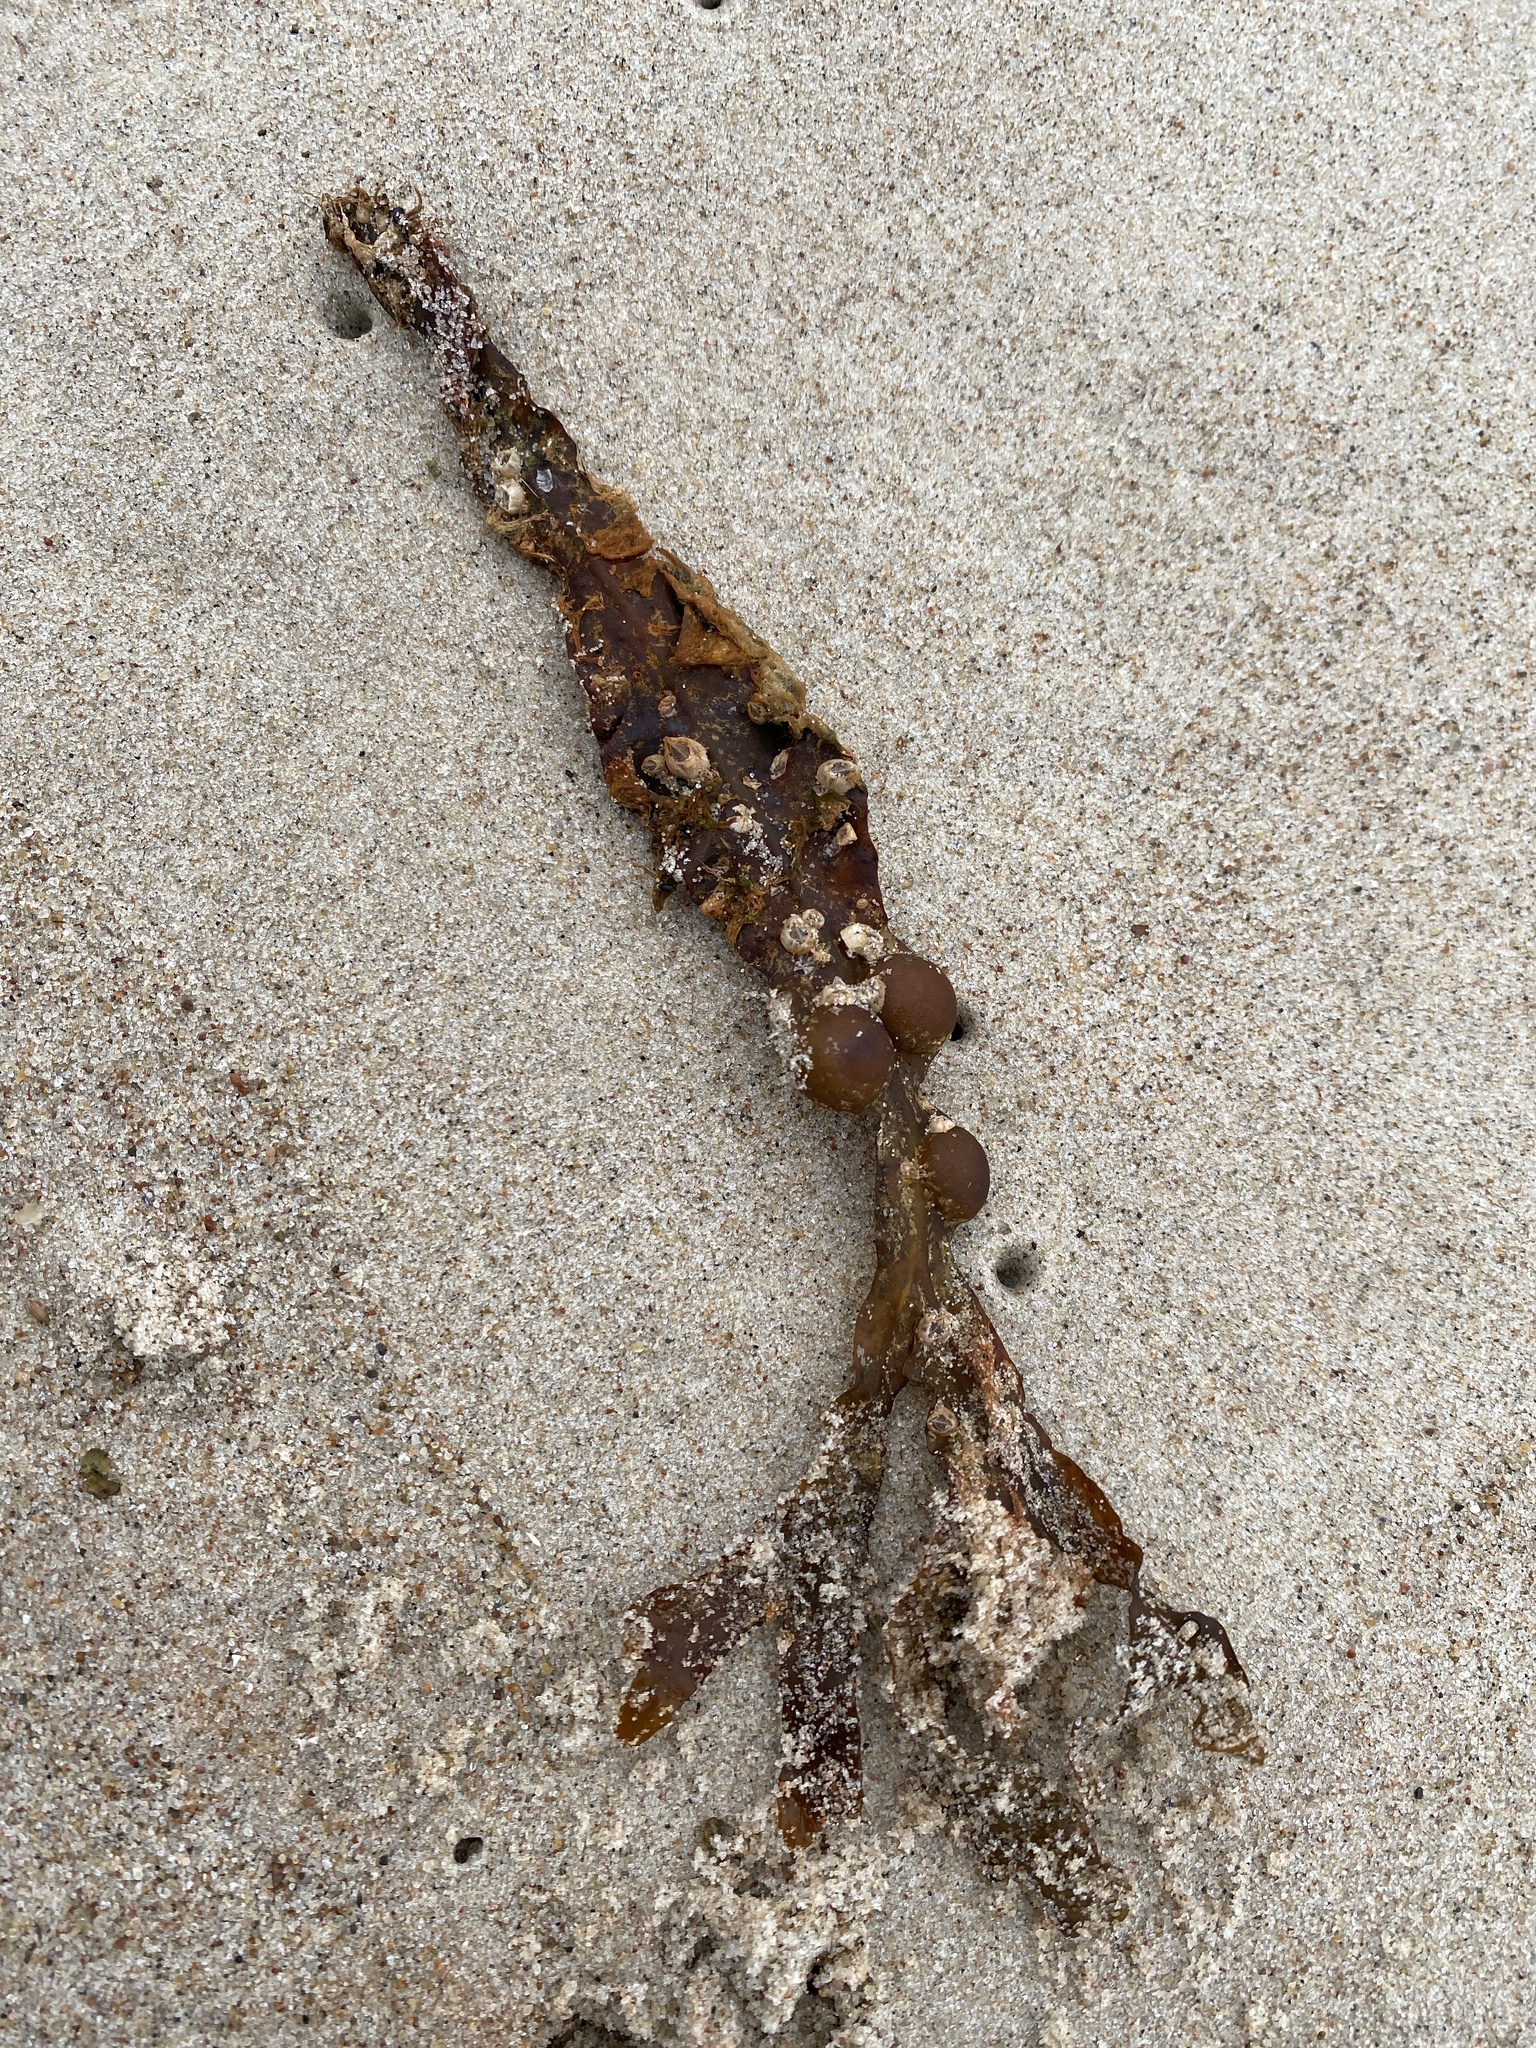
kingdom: Chromista
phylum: Ochrophyta
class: Phaeophyceae
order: Fucales
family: Fucaceae
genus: Fucus
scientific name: Fucus vesiculosus
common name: Bladder wrack
